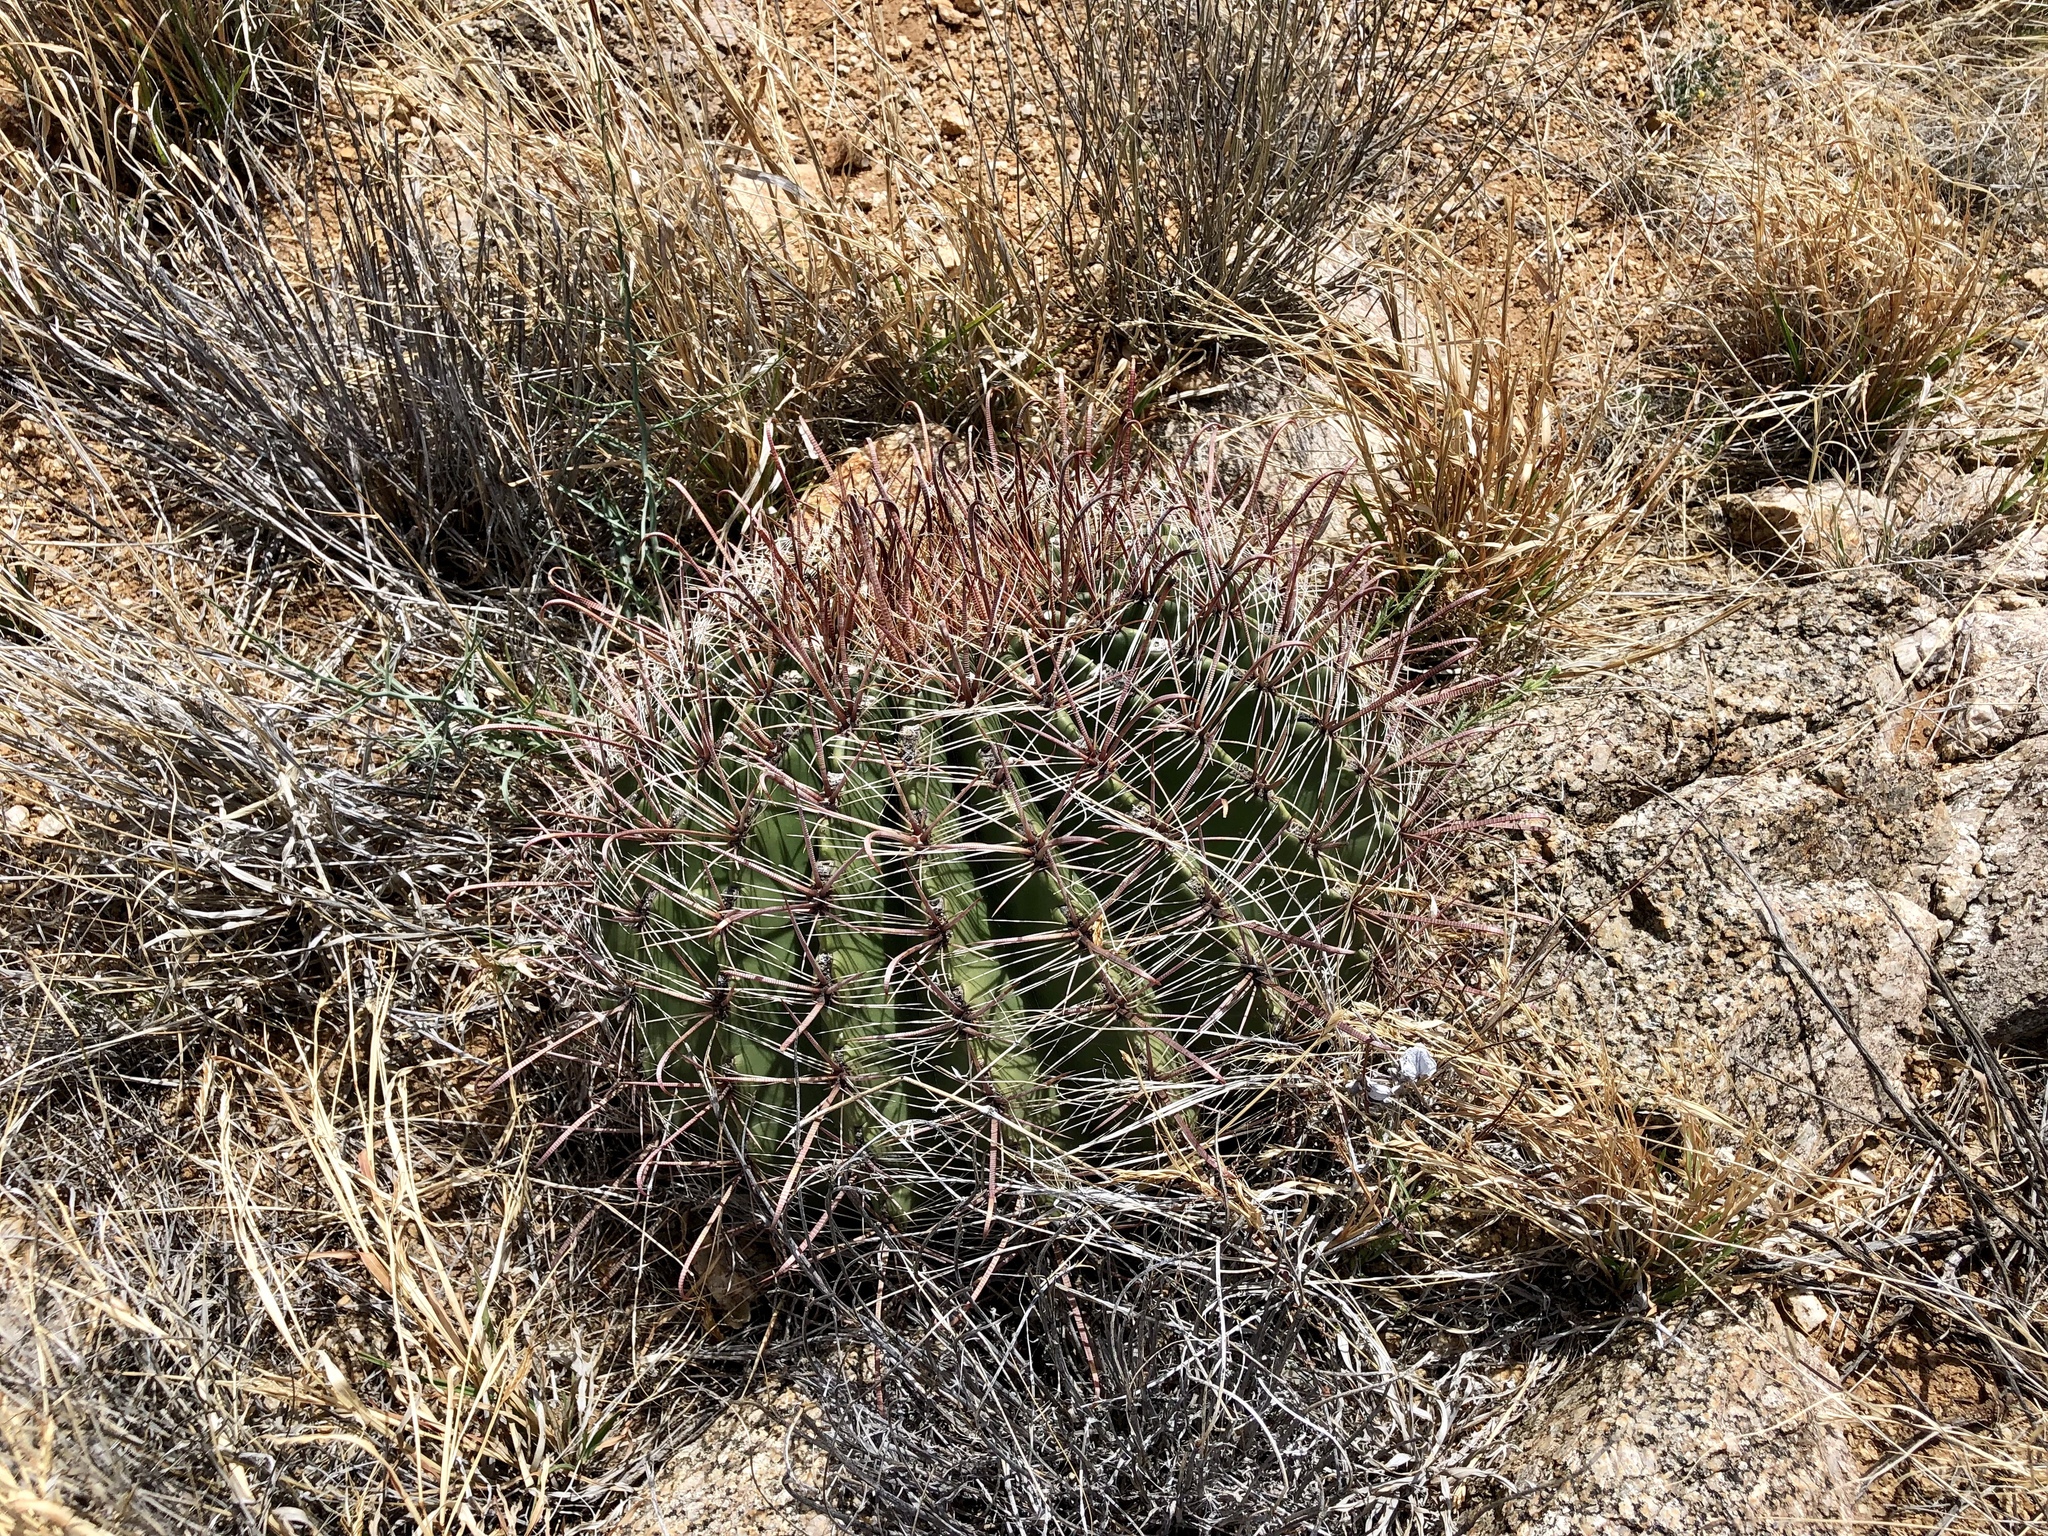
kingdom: Plantae
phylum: Tracheophyta
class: Magnoliopsida
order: Caryophyllales
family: Cactaceae
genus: Ferocactus
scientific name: Ferocactus wislizeni
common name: Candy barrel cactus
